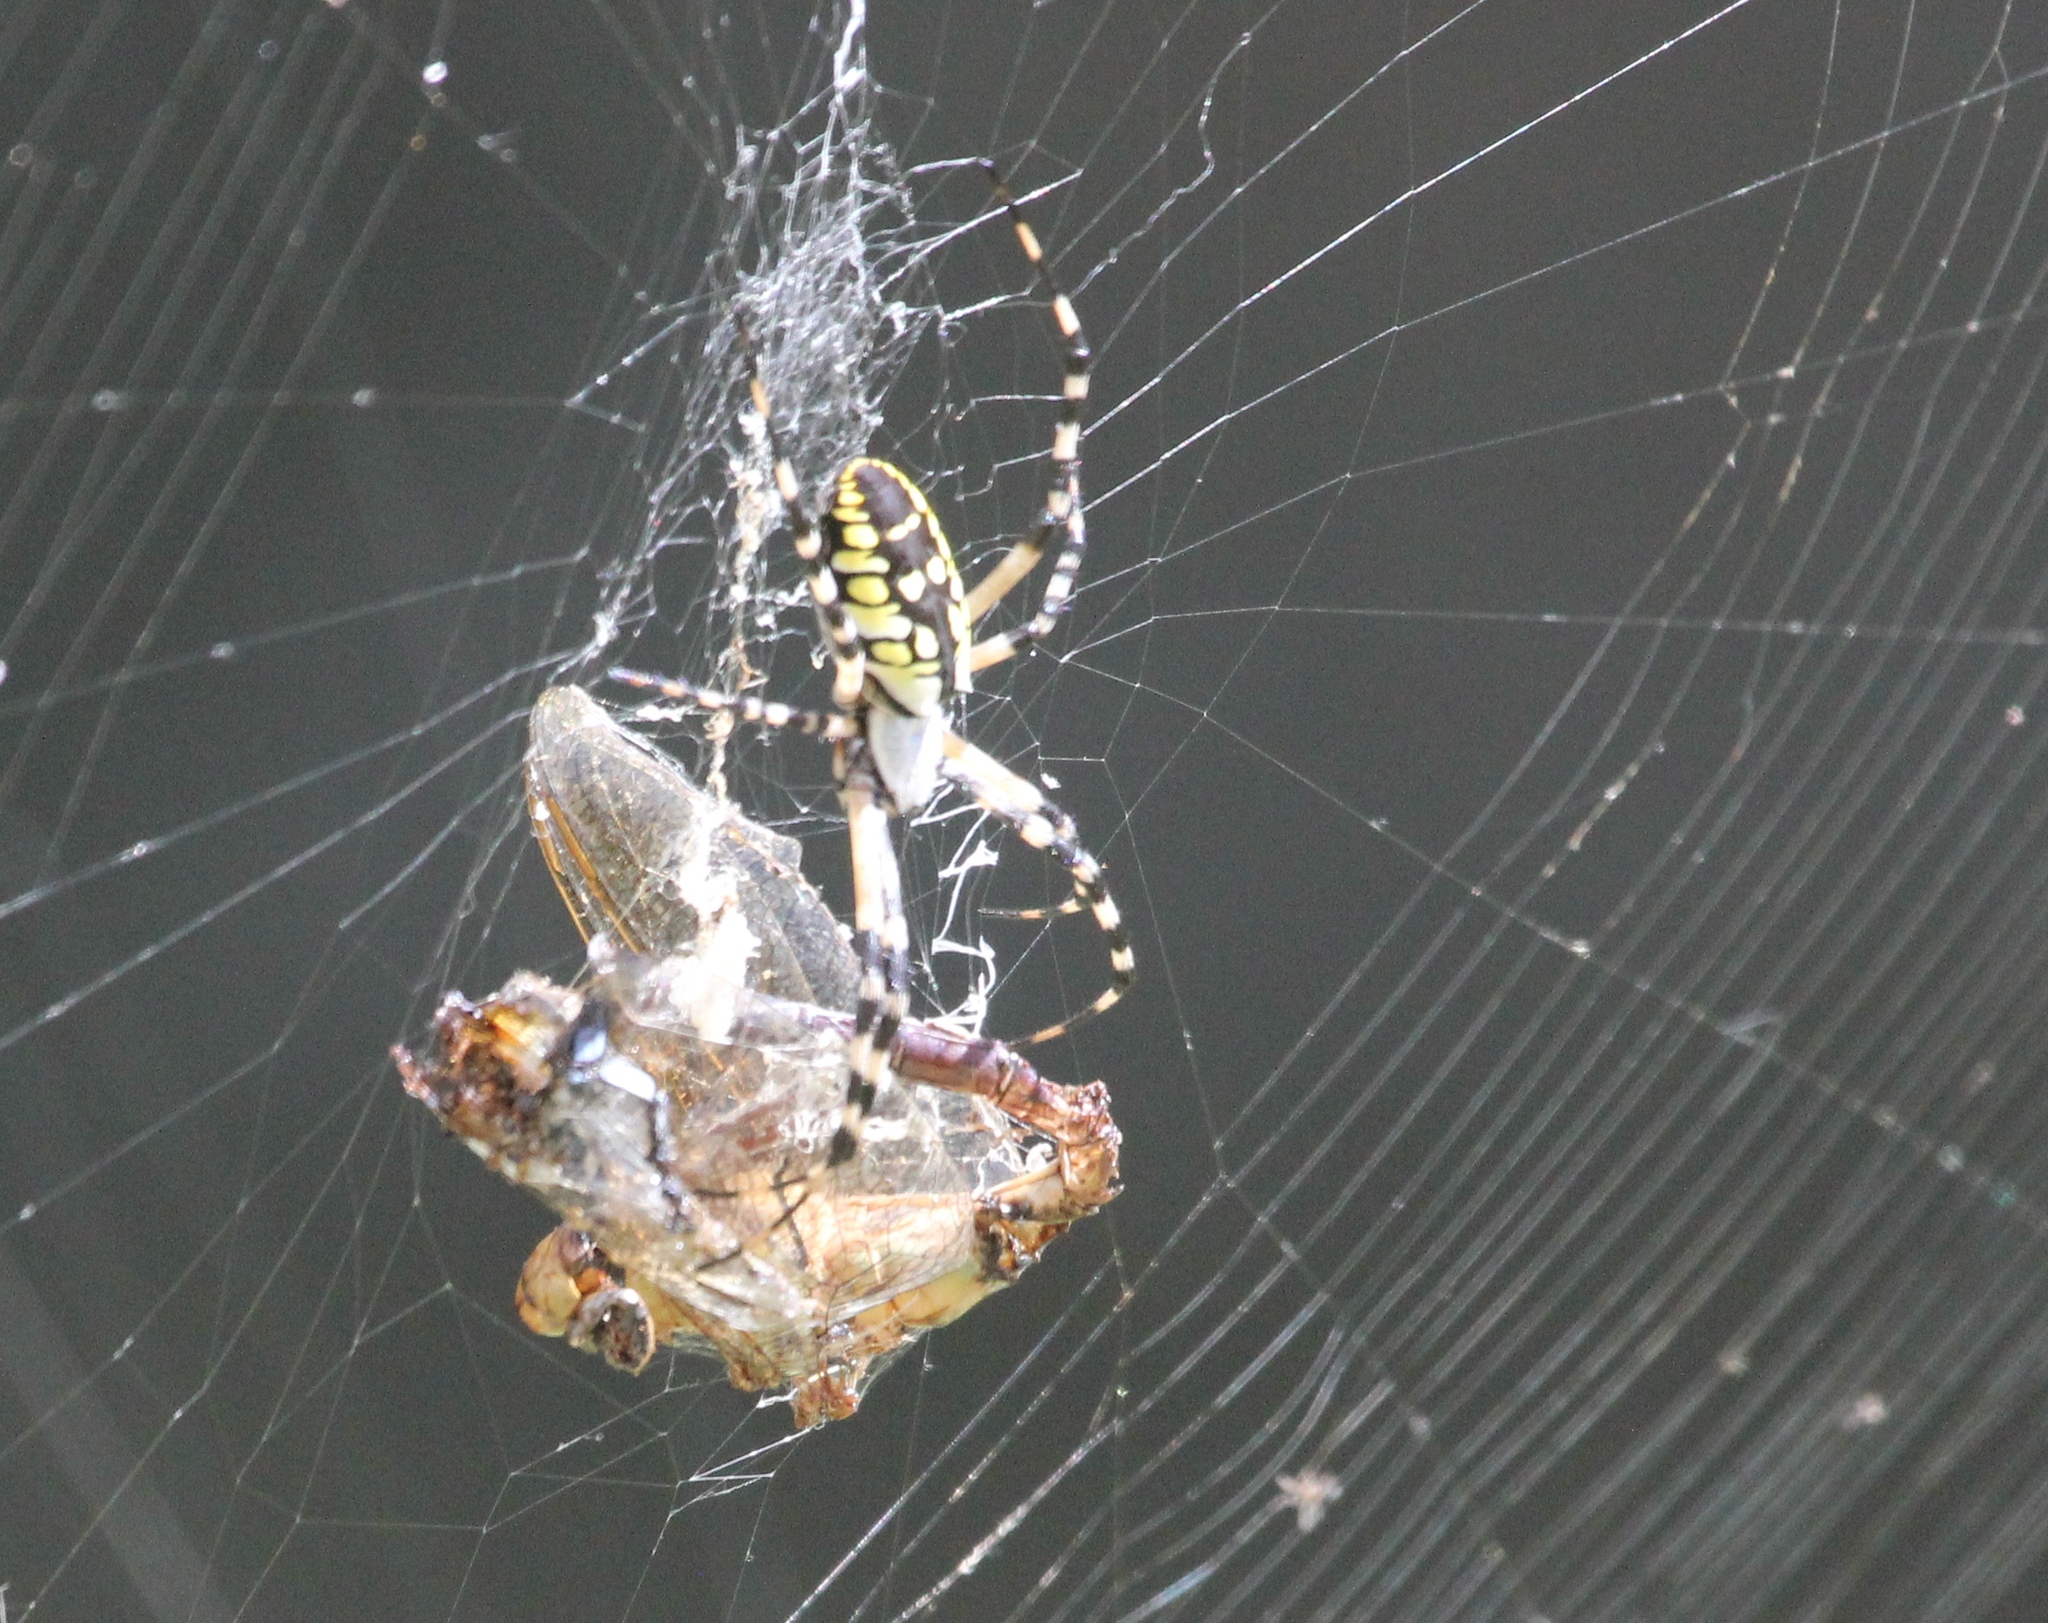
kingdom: Animalia
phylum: Arthropoda
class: Arachnida
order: Araneae
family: Araneidae
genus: Argiope
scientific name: Argiope aurantia
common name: Orb weavers
